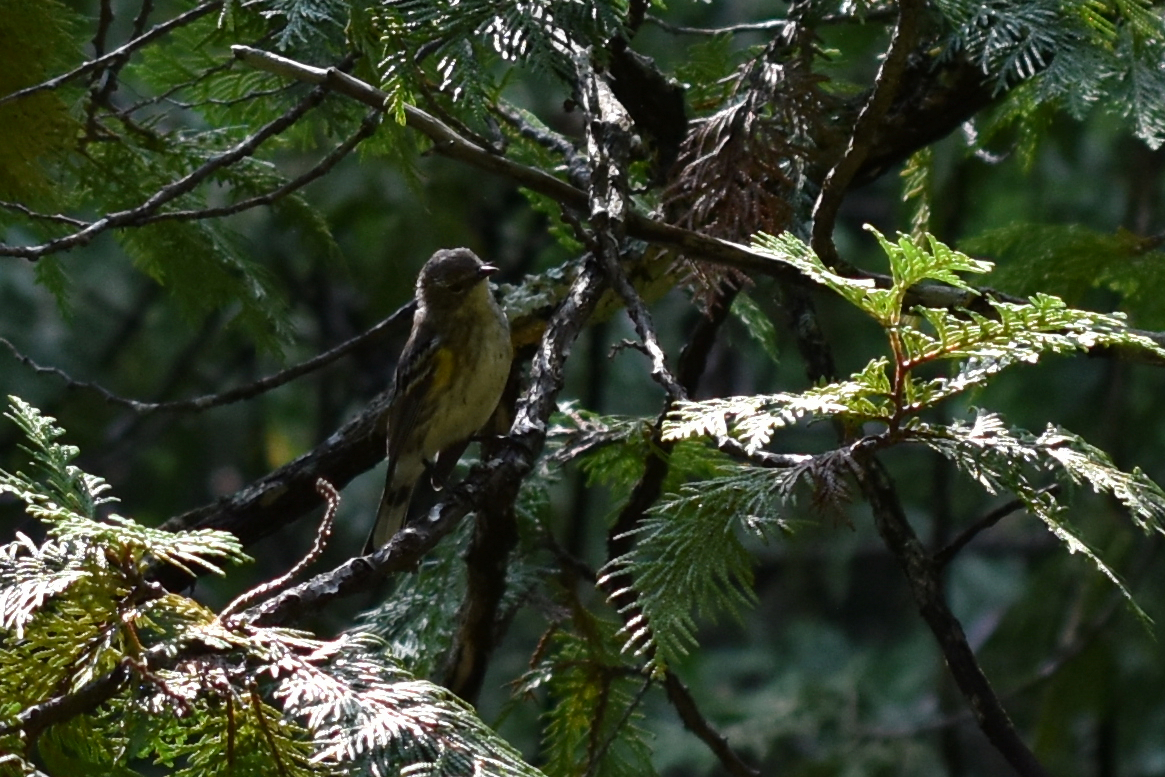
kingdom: Animalia
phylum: Chordata
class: Aves
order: Passeriformes
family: Parulidae
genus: Setophaga
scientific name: Setophaga coronata
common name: Myrtle warbler
